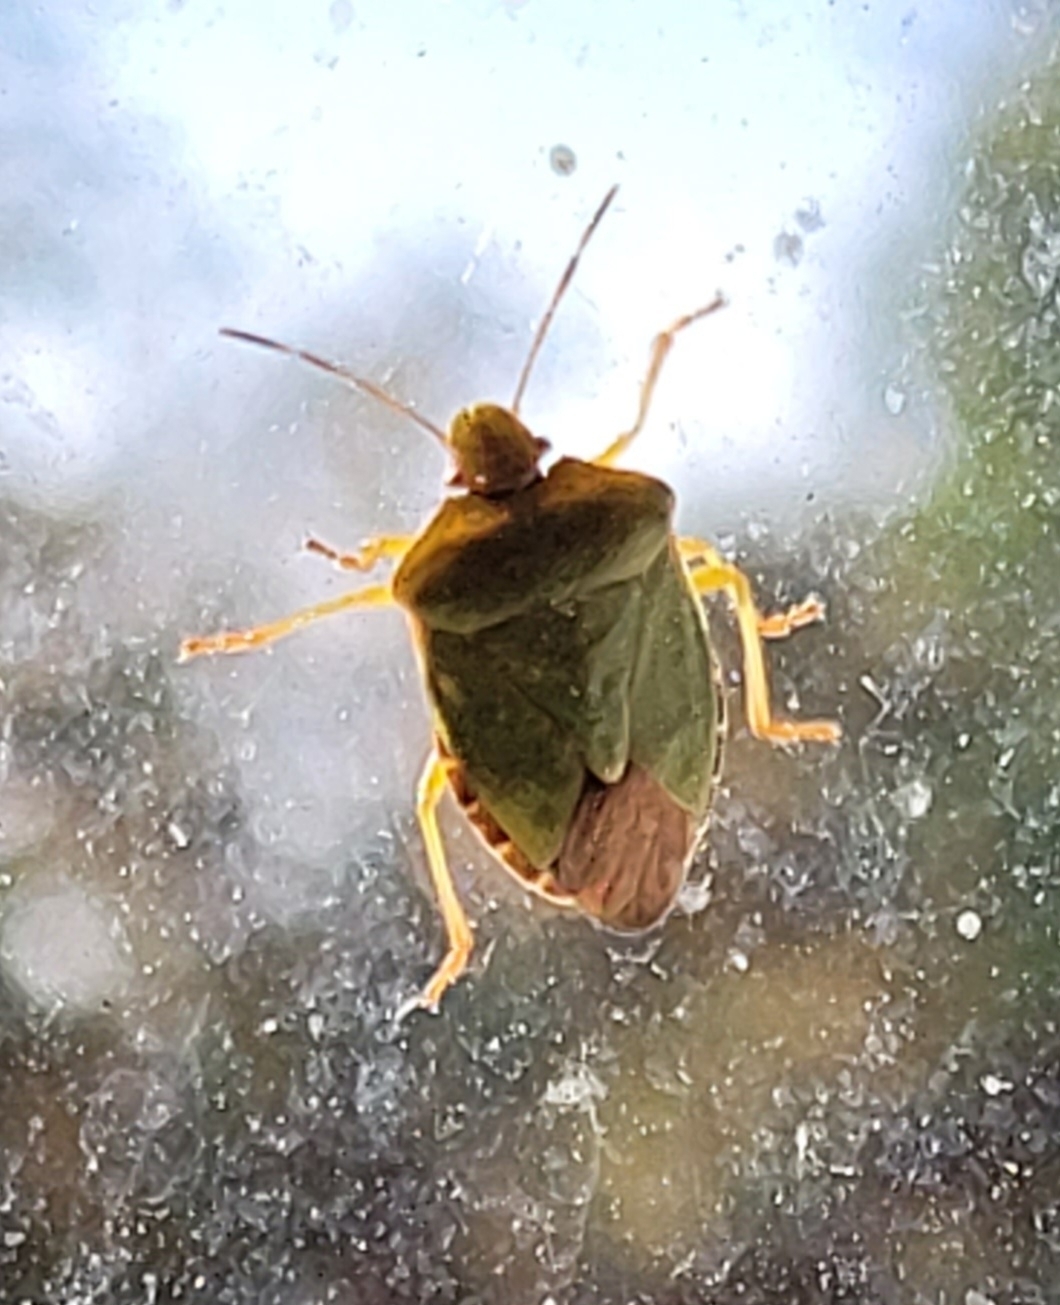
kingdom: Animalia
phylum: Arthropoda
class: Insecta
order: Hemiptera
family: Pentatomidae
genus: Palomena
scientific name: Palomena prasina
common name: Green shieldbug
